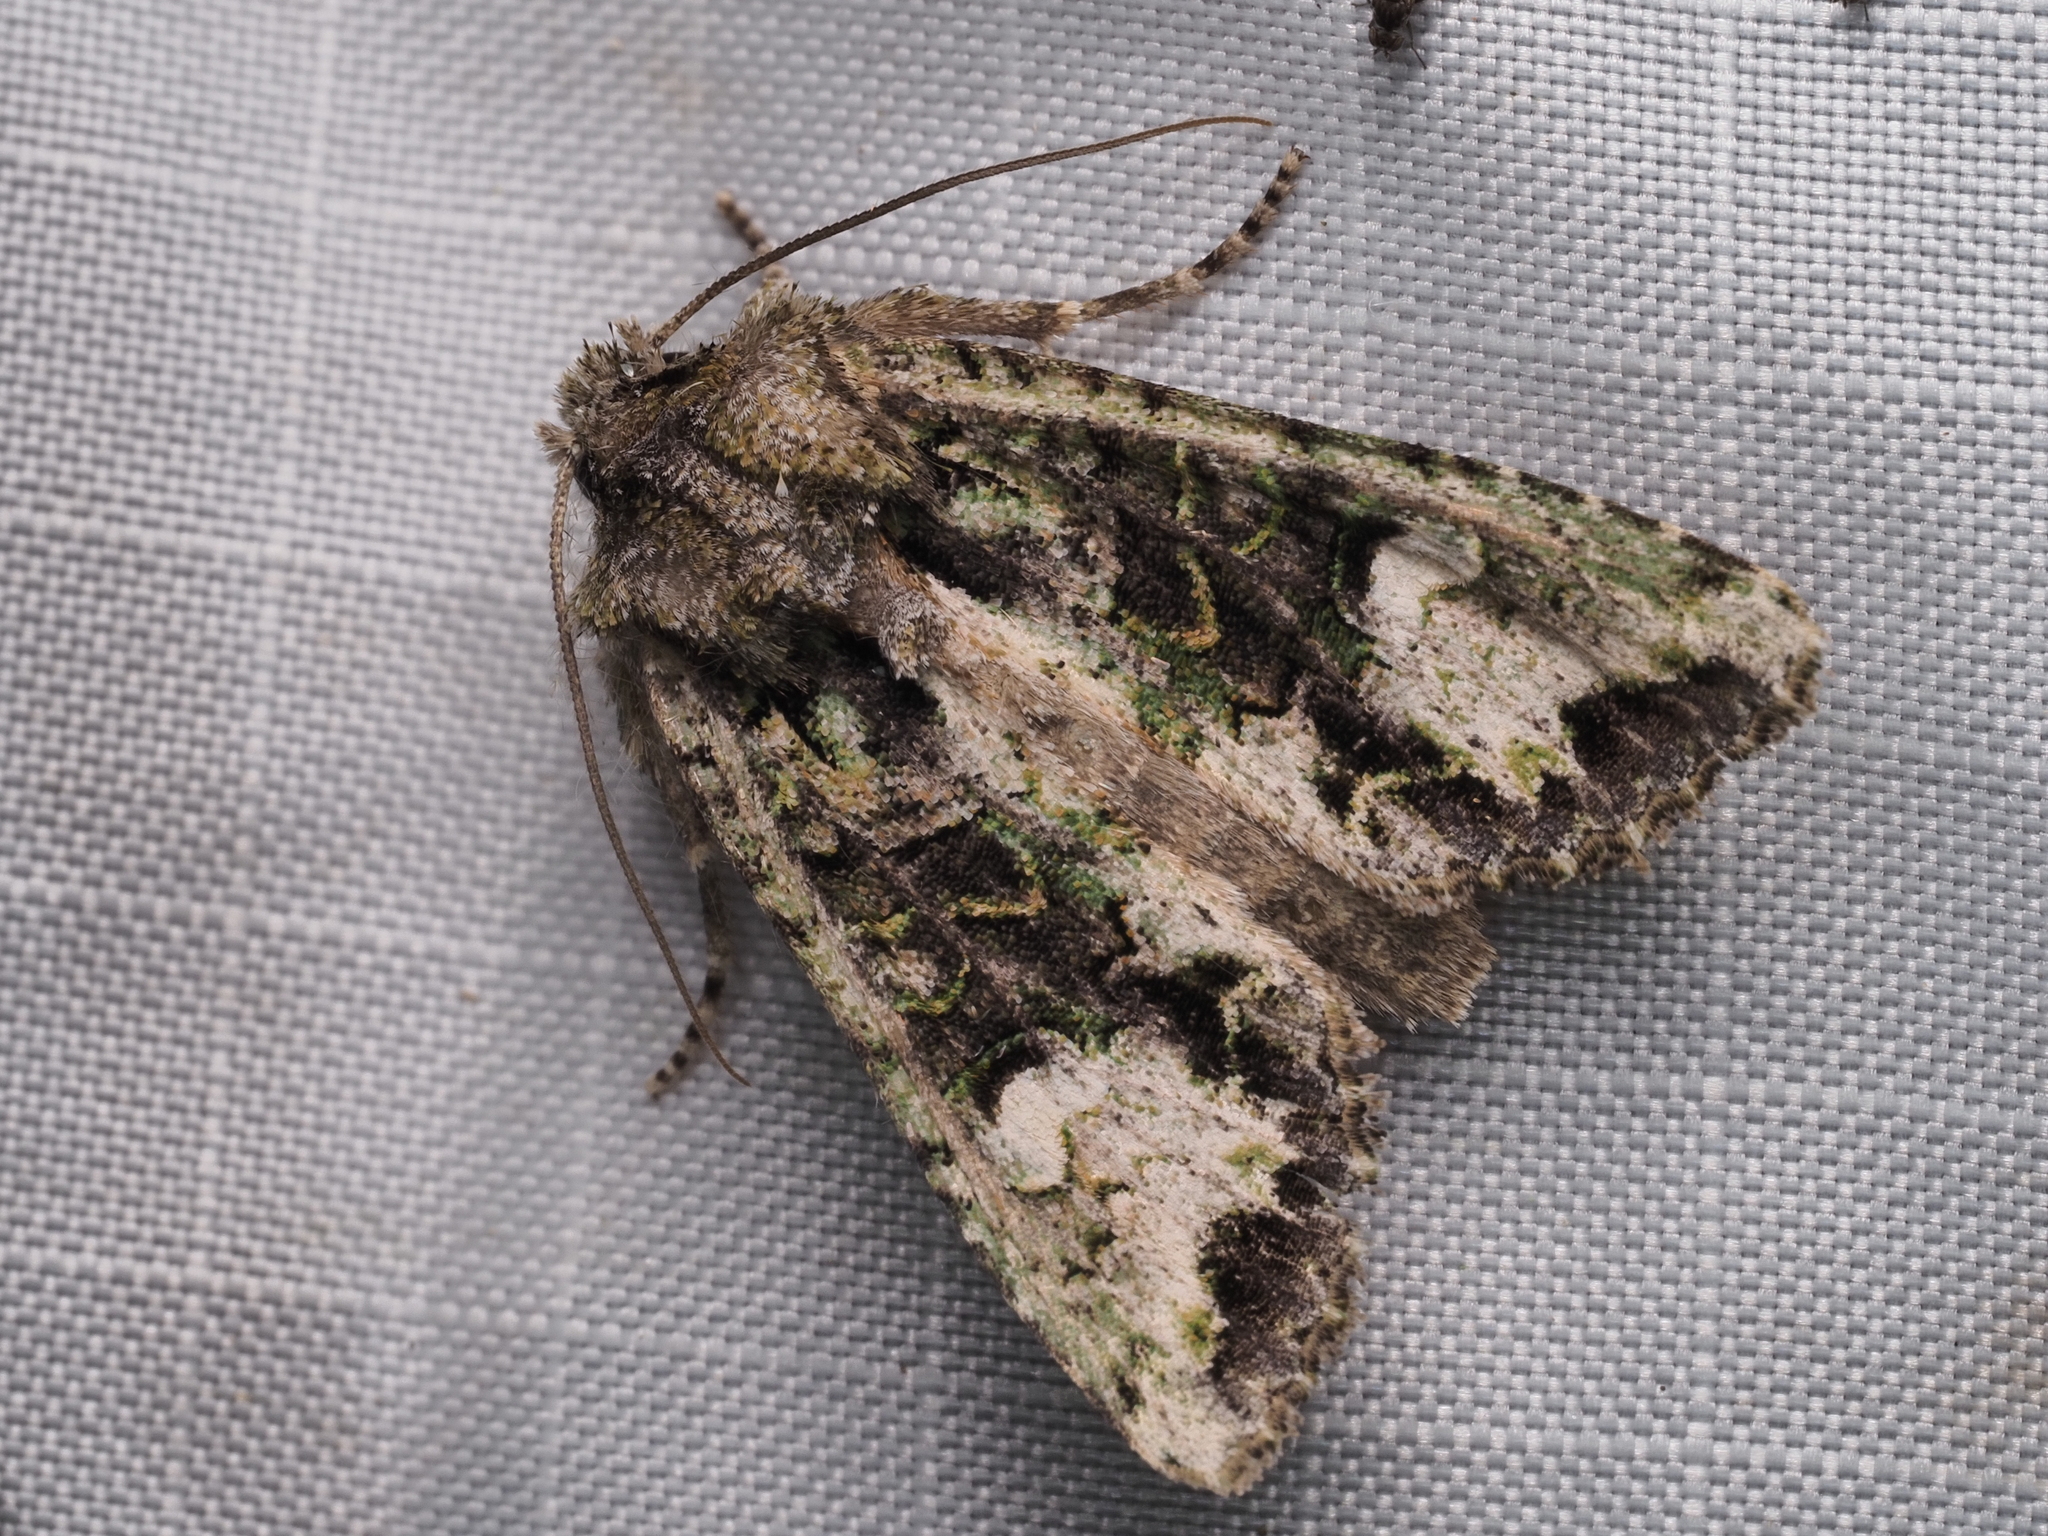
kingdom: Animalia
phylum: Arthropoda
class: Insecta
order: Lepidoptera
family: Noctuidae
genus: Ichneutica
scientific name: Ichneutica insignis
